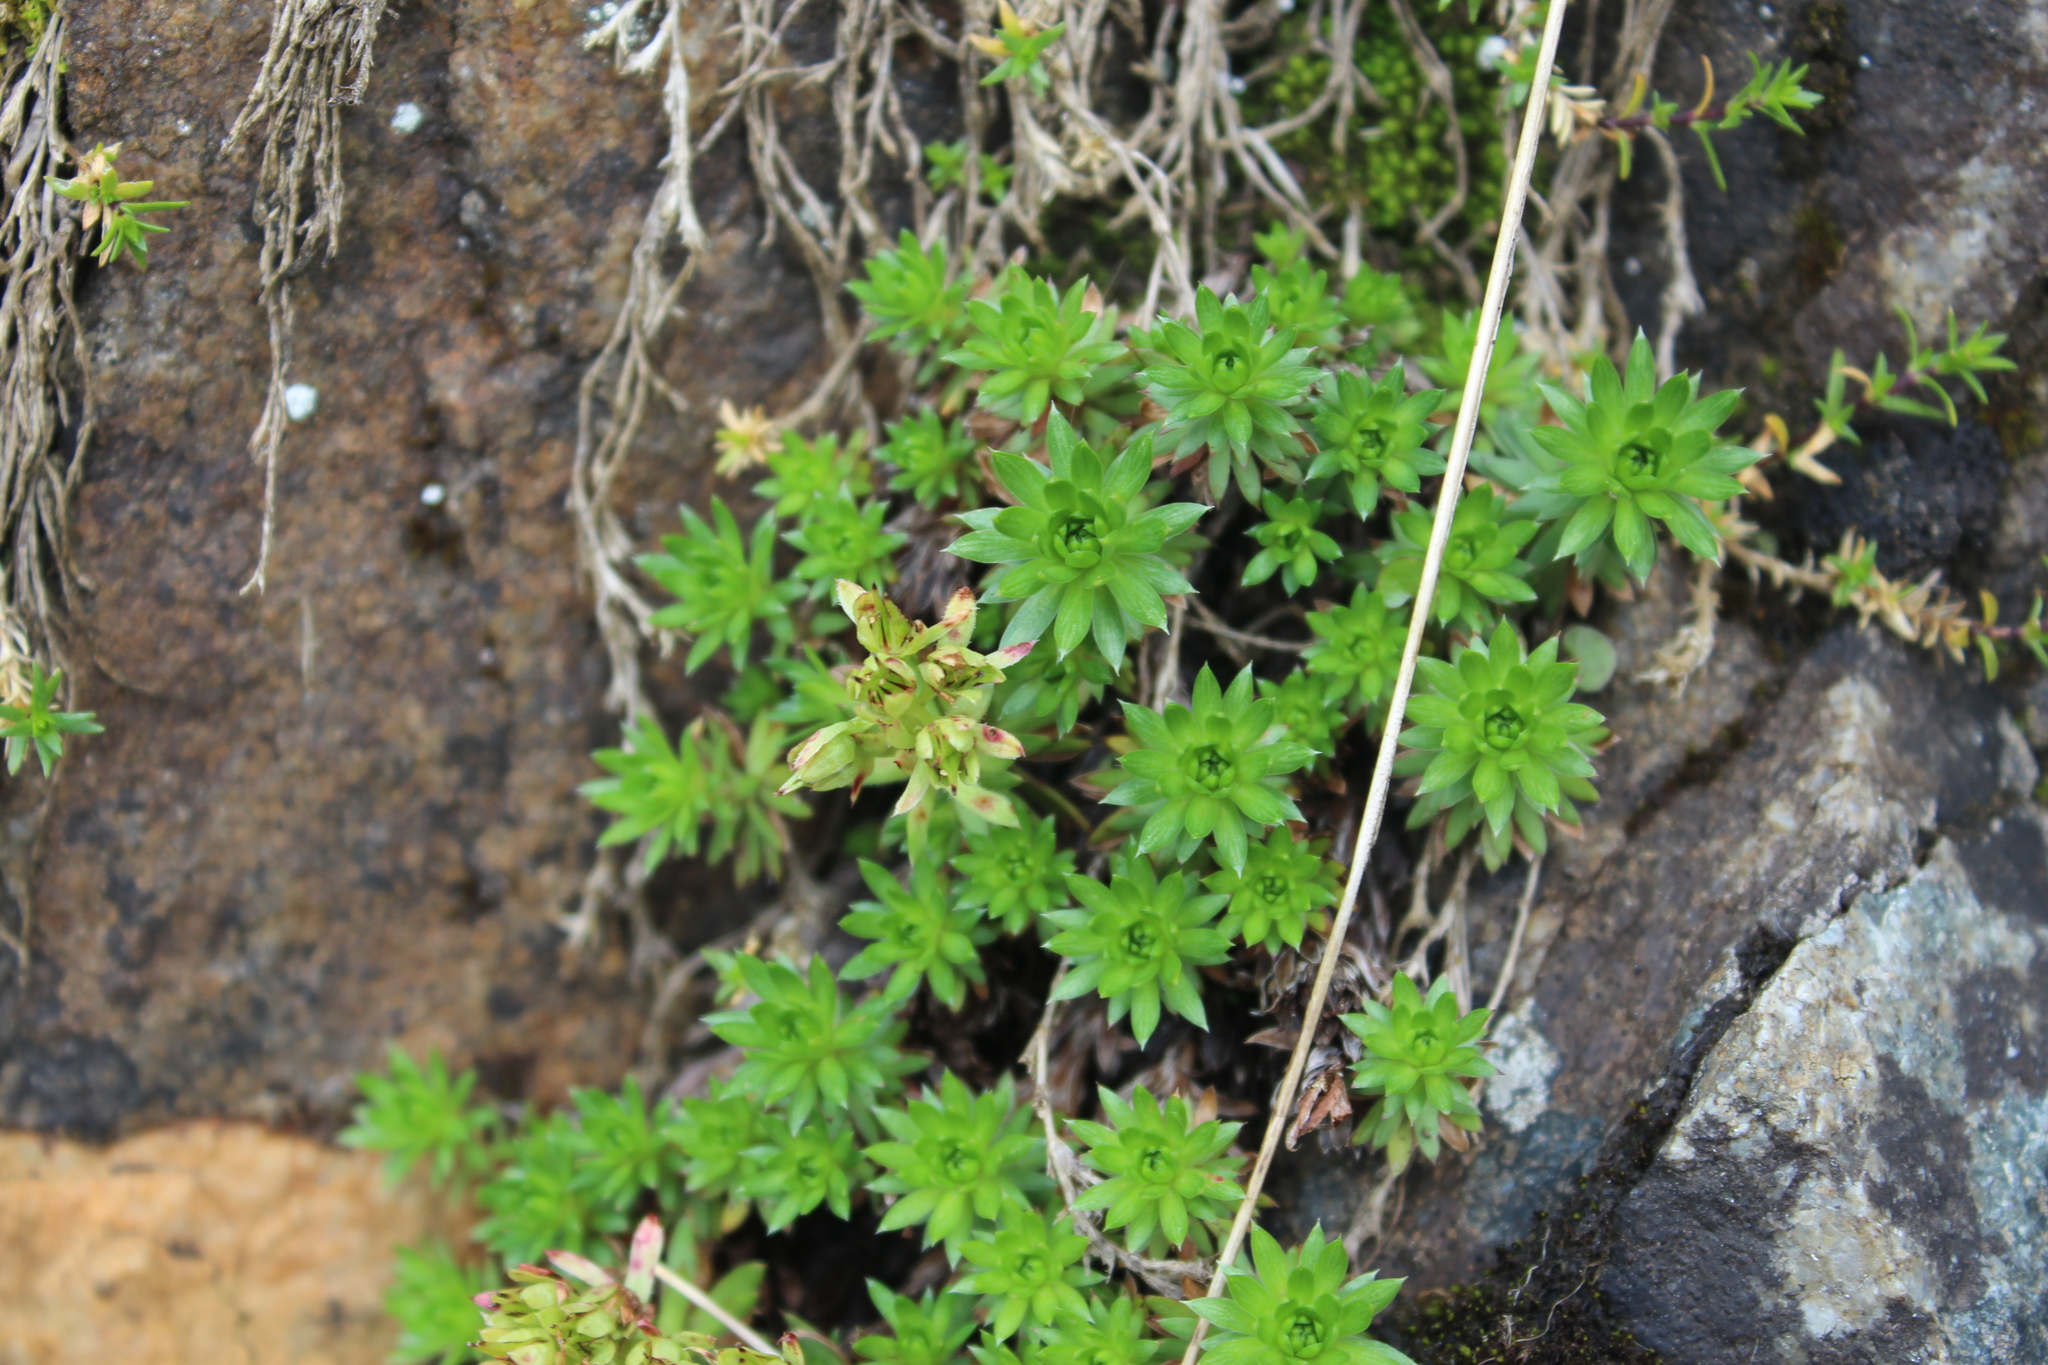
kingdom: Plantae
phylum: Tracheophyta
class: Magnoliopsida
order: Saxifragales
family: Saxifragaceae
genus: Saxifraga
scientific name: Saxifraga juniperifolia
